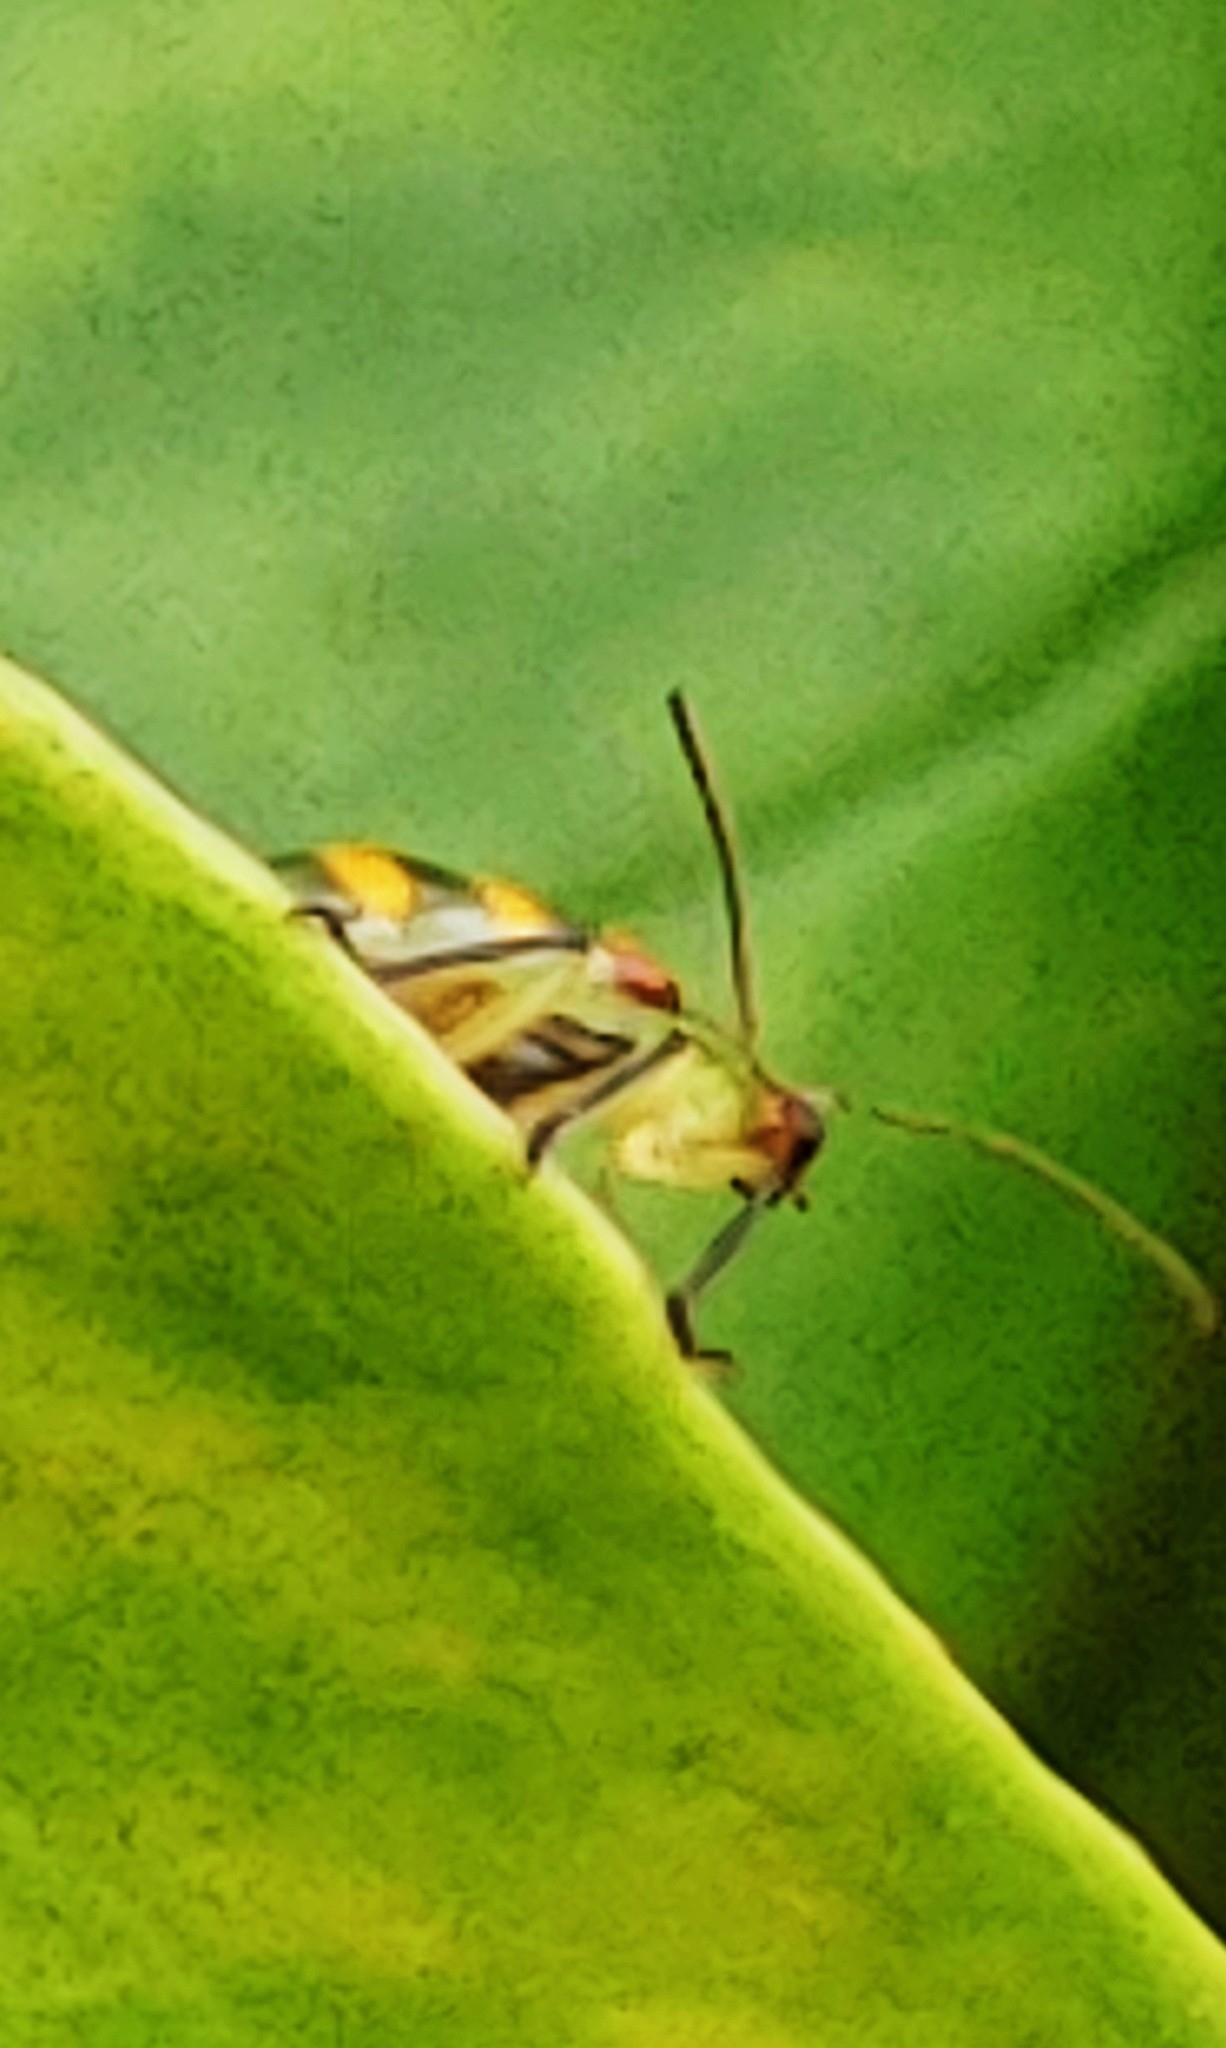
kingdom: Animalia
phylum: Arthropoda
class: Insecta
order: Coleoptera
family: Chrysomelidae
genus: Diabrotica
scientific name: Diabrotica speciosa
